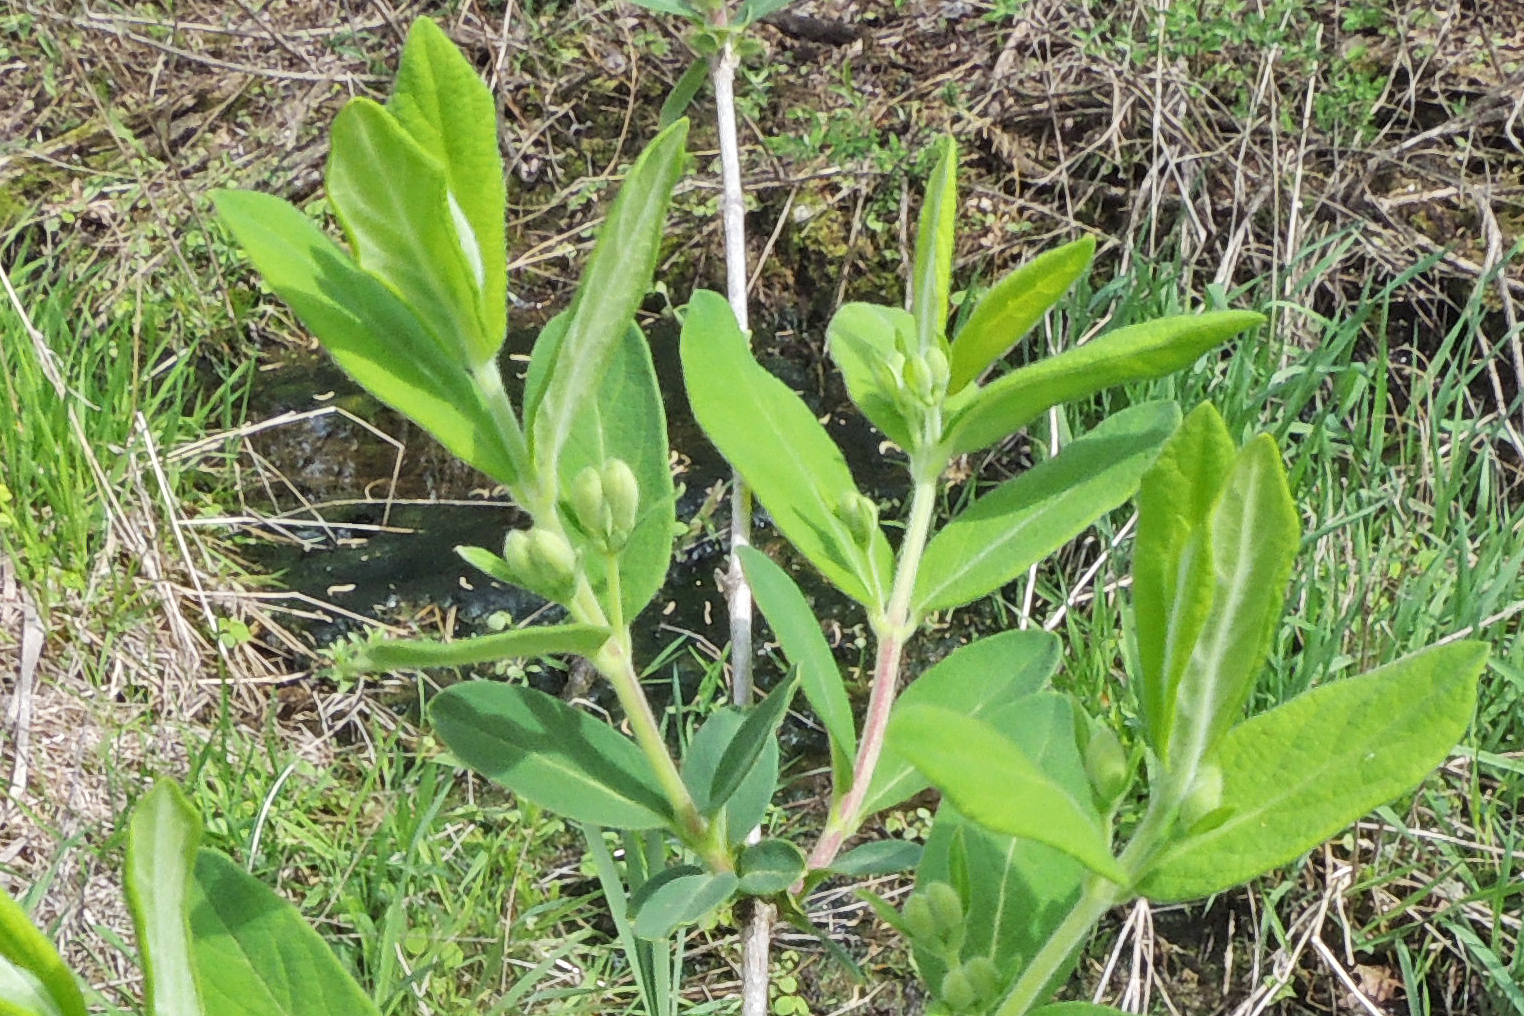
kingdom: Plantae
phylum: Tracheophyta
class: Magnoliopsida
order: Dipsacales
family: Caprifoliaceae
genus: Lonicera
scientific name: Lonicera
